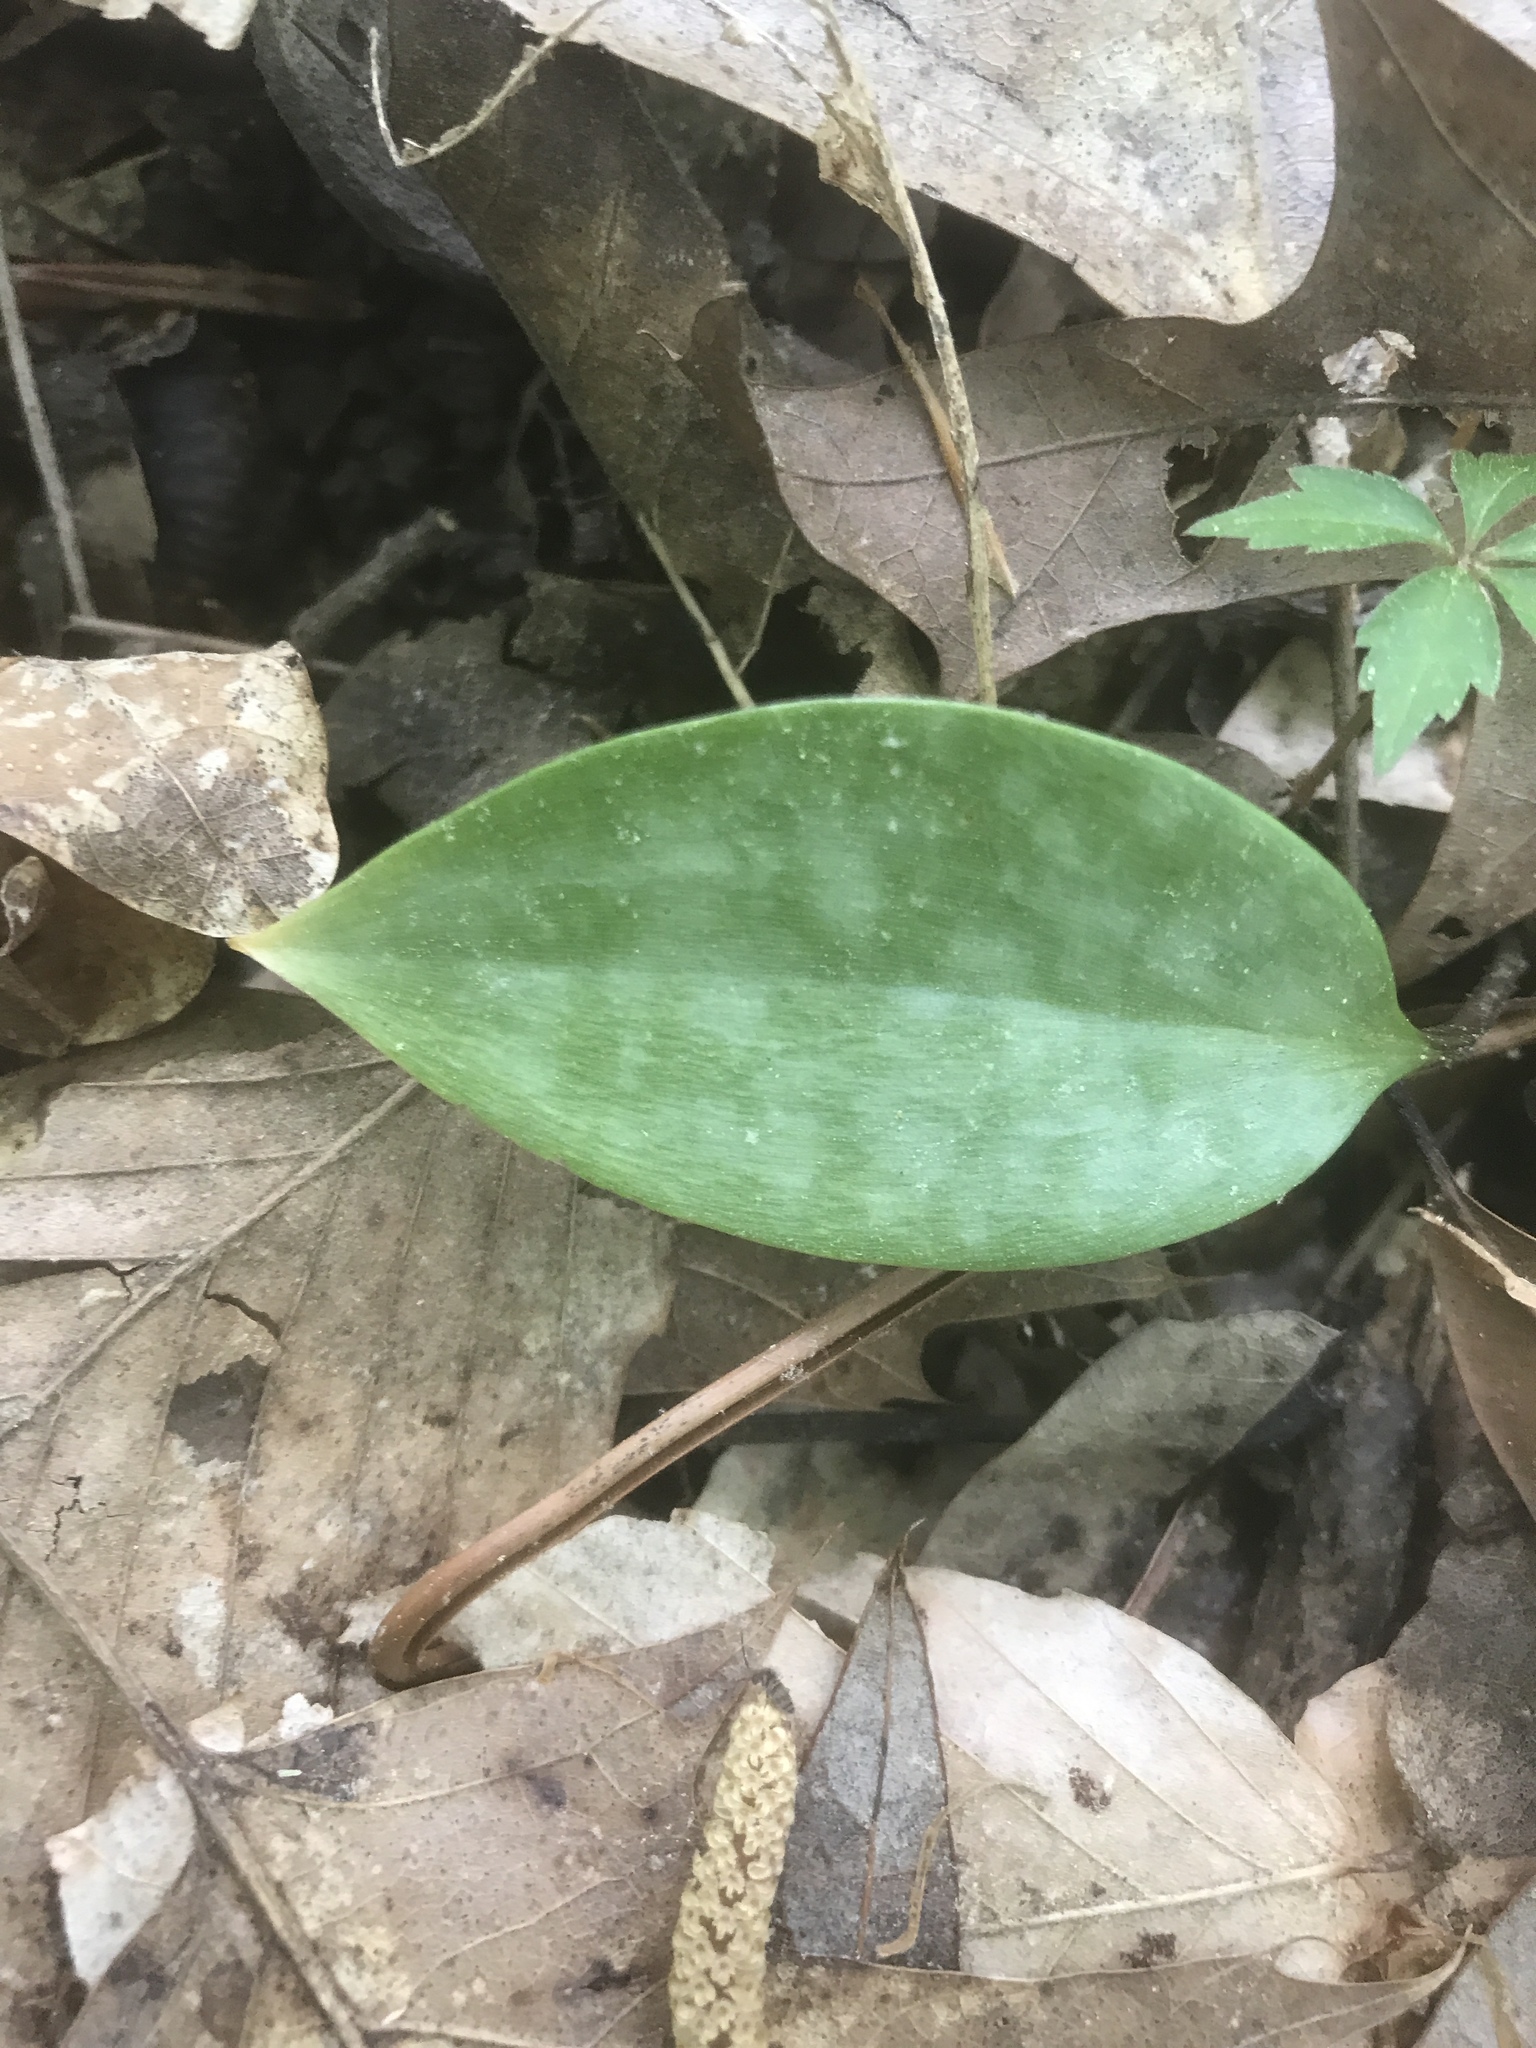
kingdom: Plantae
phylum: Tracheophyta
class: Liliopsida
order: Liliales
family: Liliaceae
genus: Erythronium
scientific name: Erythronium umbilicatum
